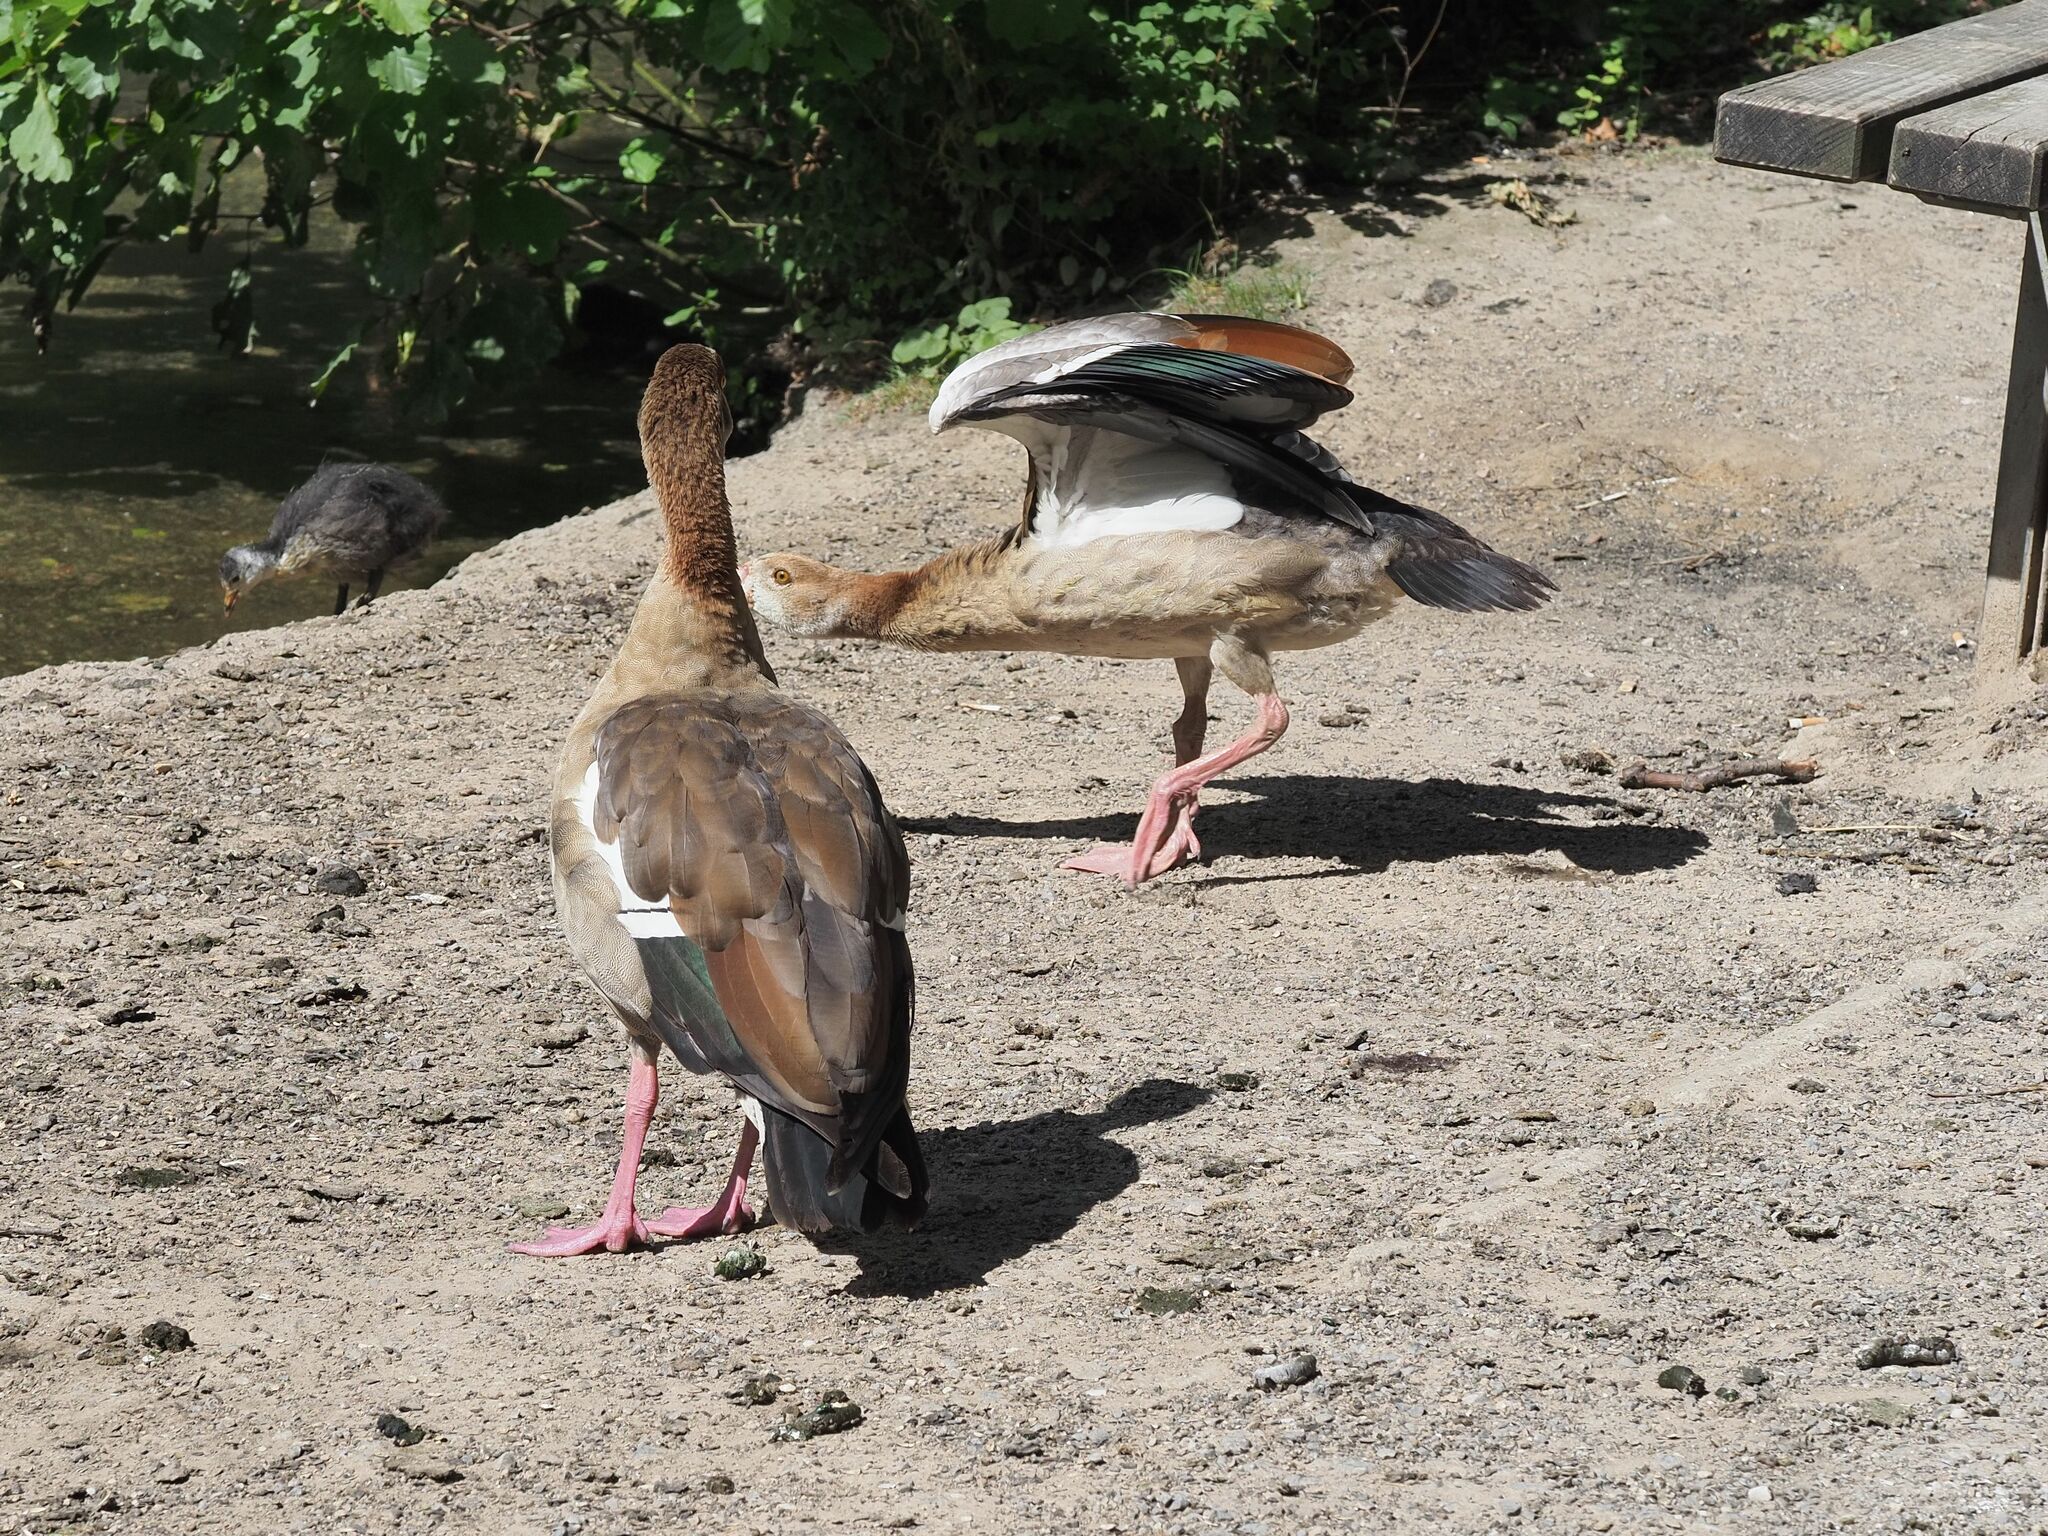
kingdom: Animalia
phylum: Chordata
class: Aves
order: Anseriformes
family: Anatidae
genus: Alopochen
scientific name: Alopochen aegyptiaca
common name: Egyptian goose
